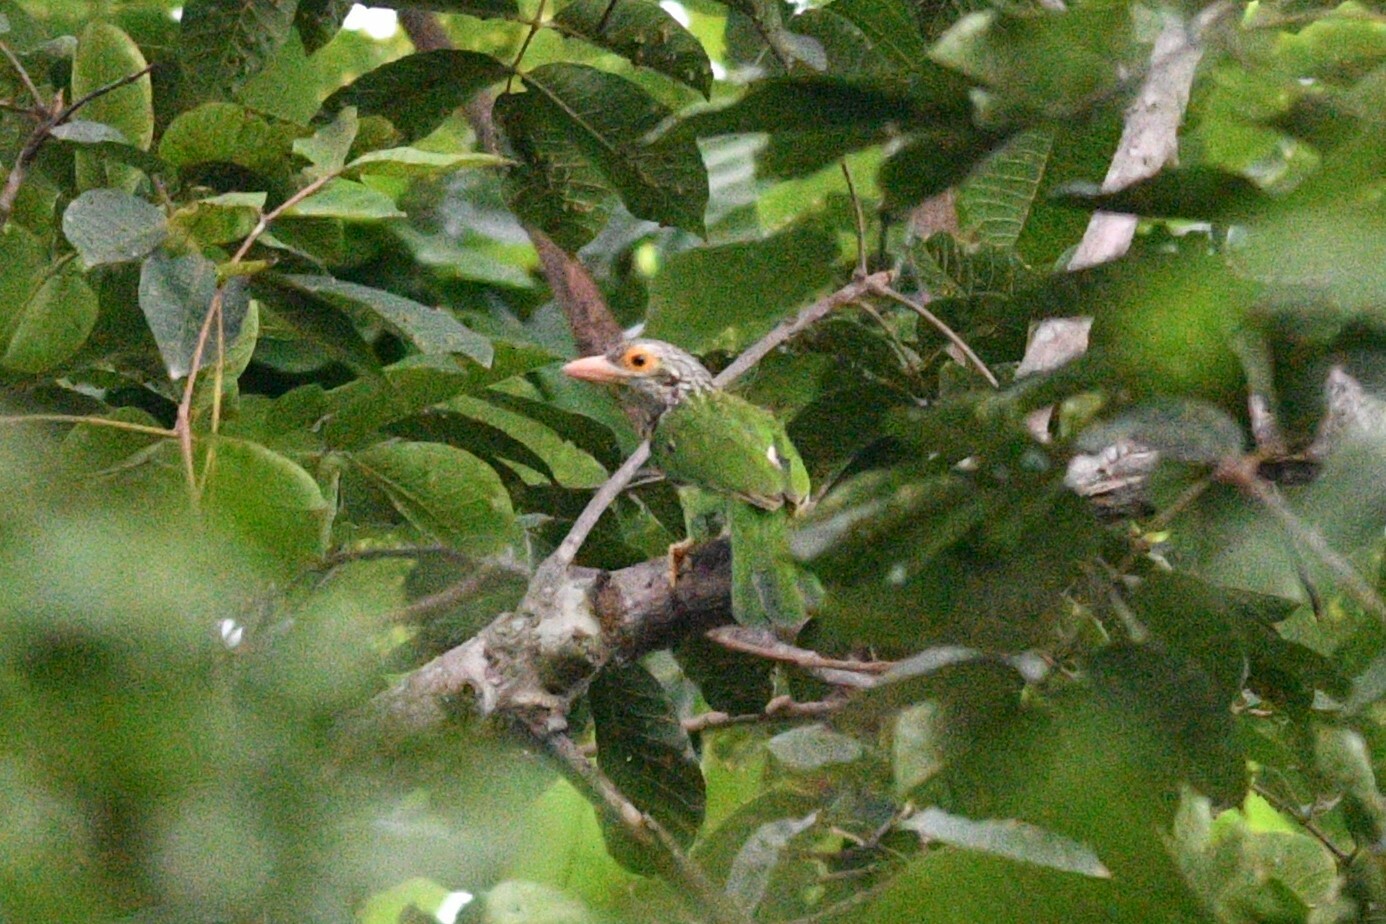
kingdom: Animalia
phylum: Chordata
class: Aves
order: Piciformes
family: Megalaimidae
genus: Psilopogon
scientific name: Psilopogon lineatus
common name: Lineated barbet
